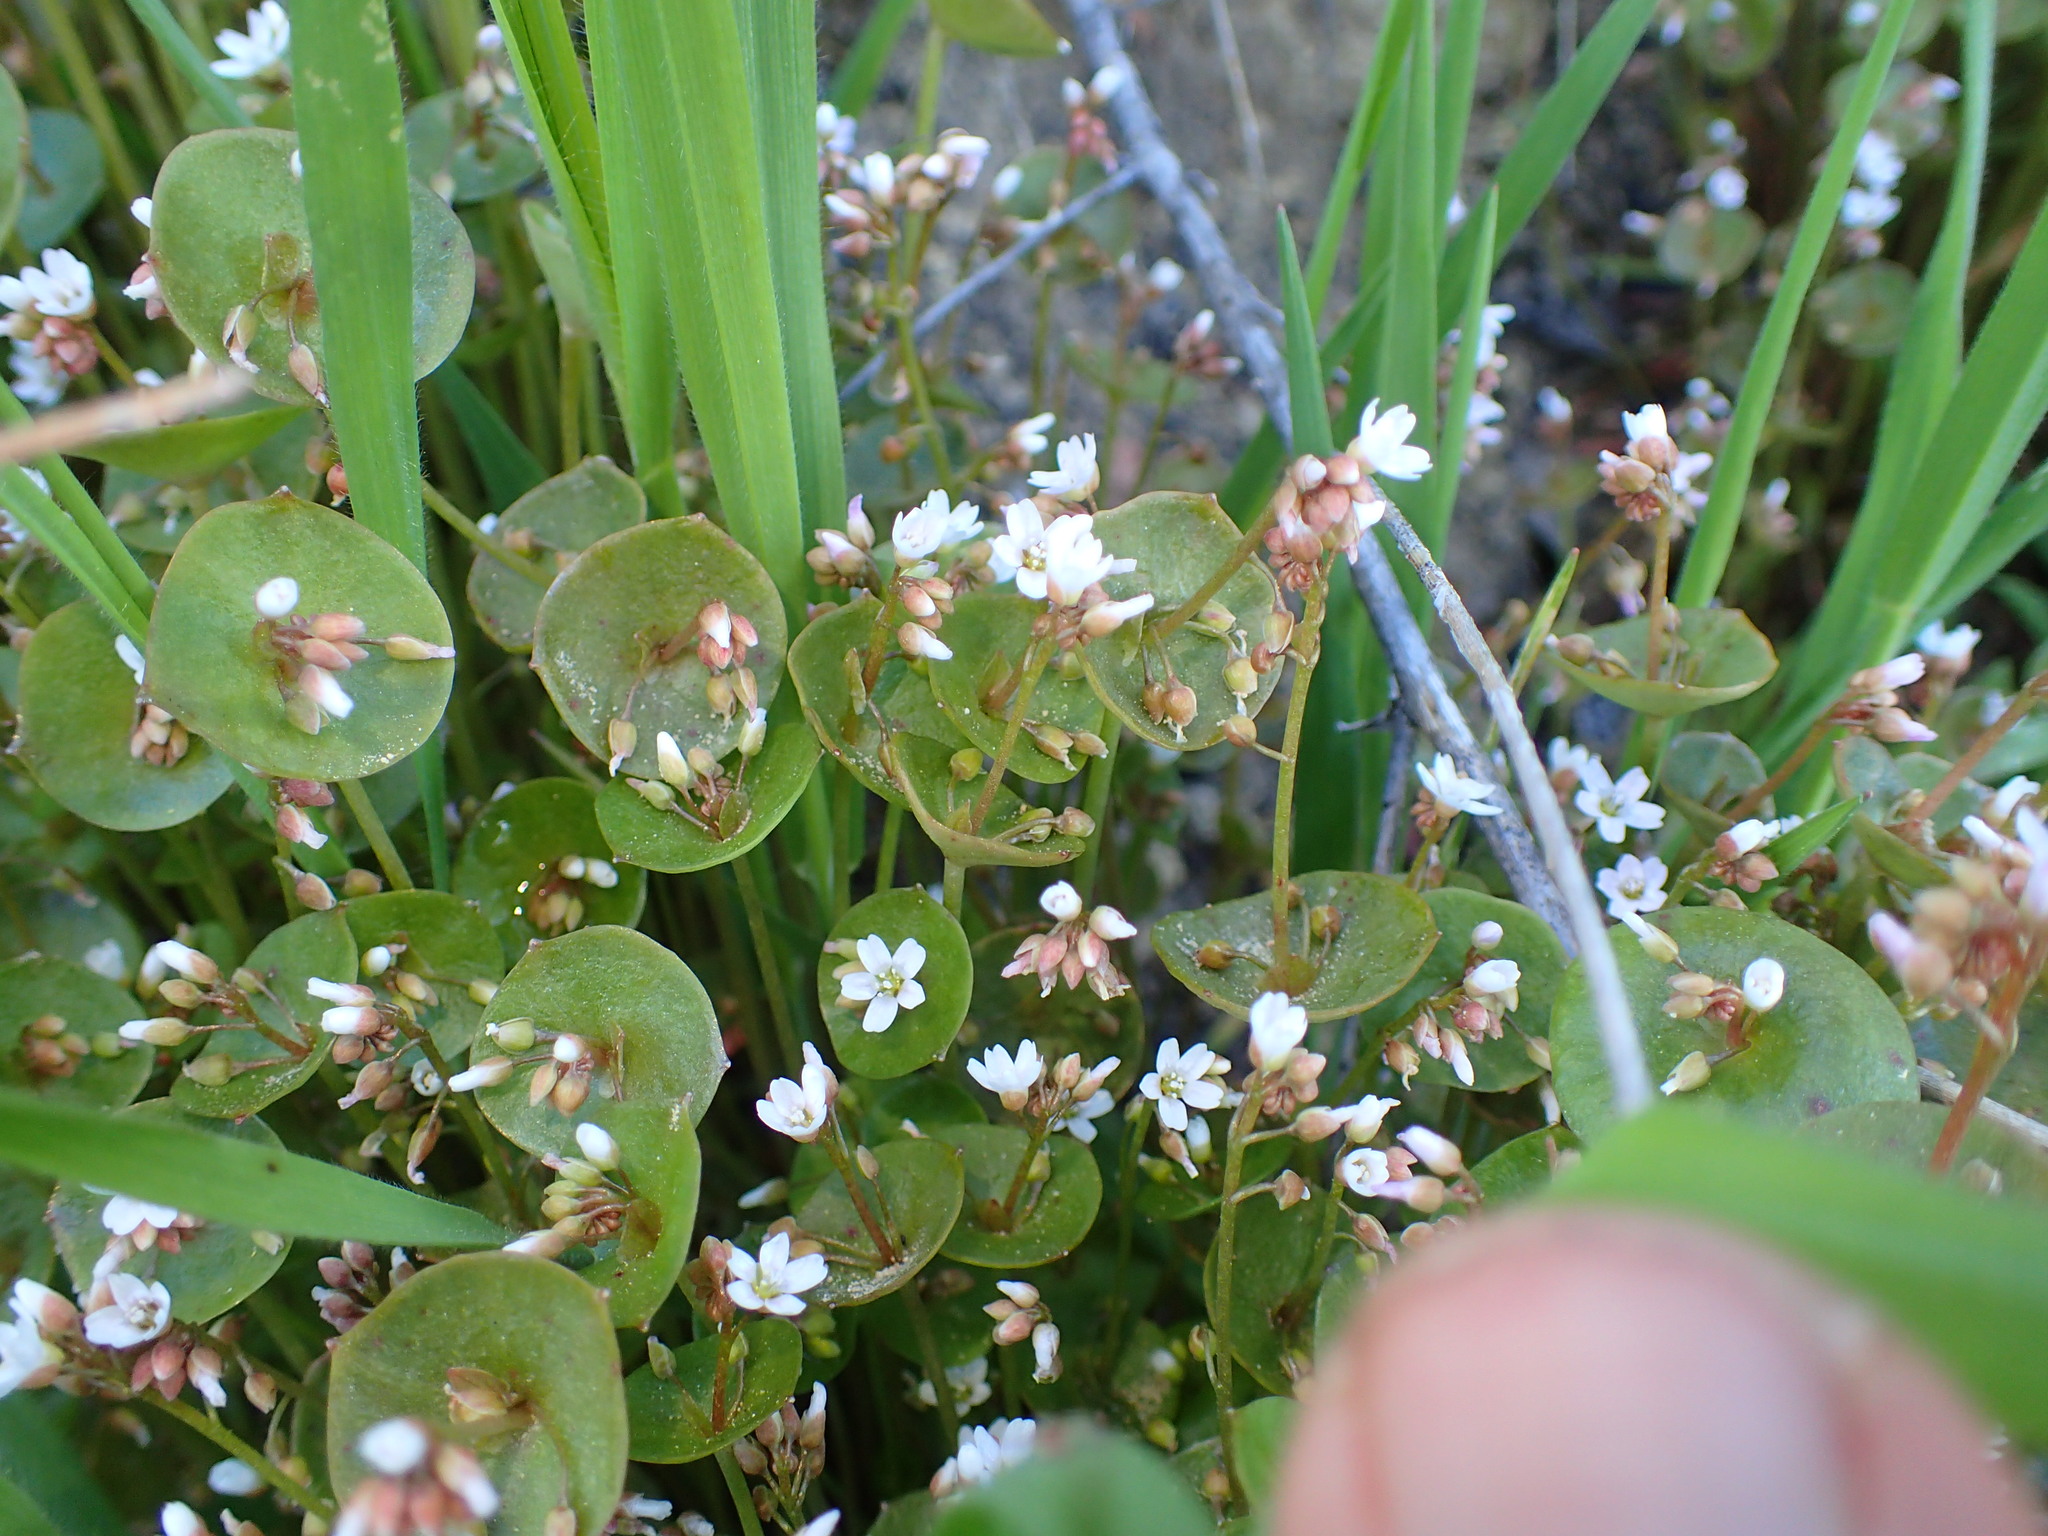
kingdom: Plantae
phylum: Tracheophyta
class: Magnoliopsida
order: Caryophyllales
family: Montiaceae
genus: Claytonia
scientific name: Claytonia perfoliata
